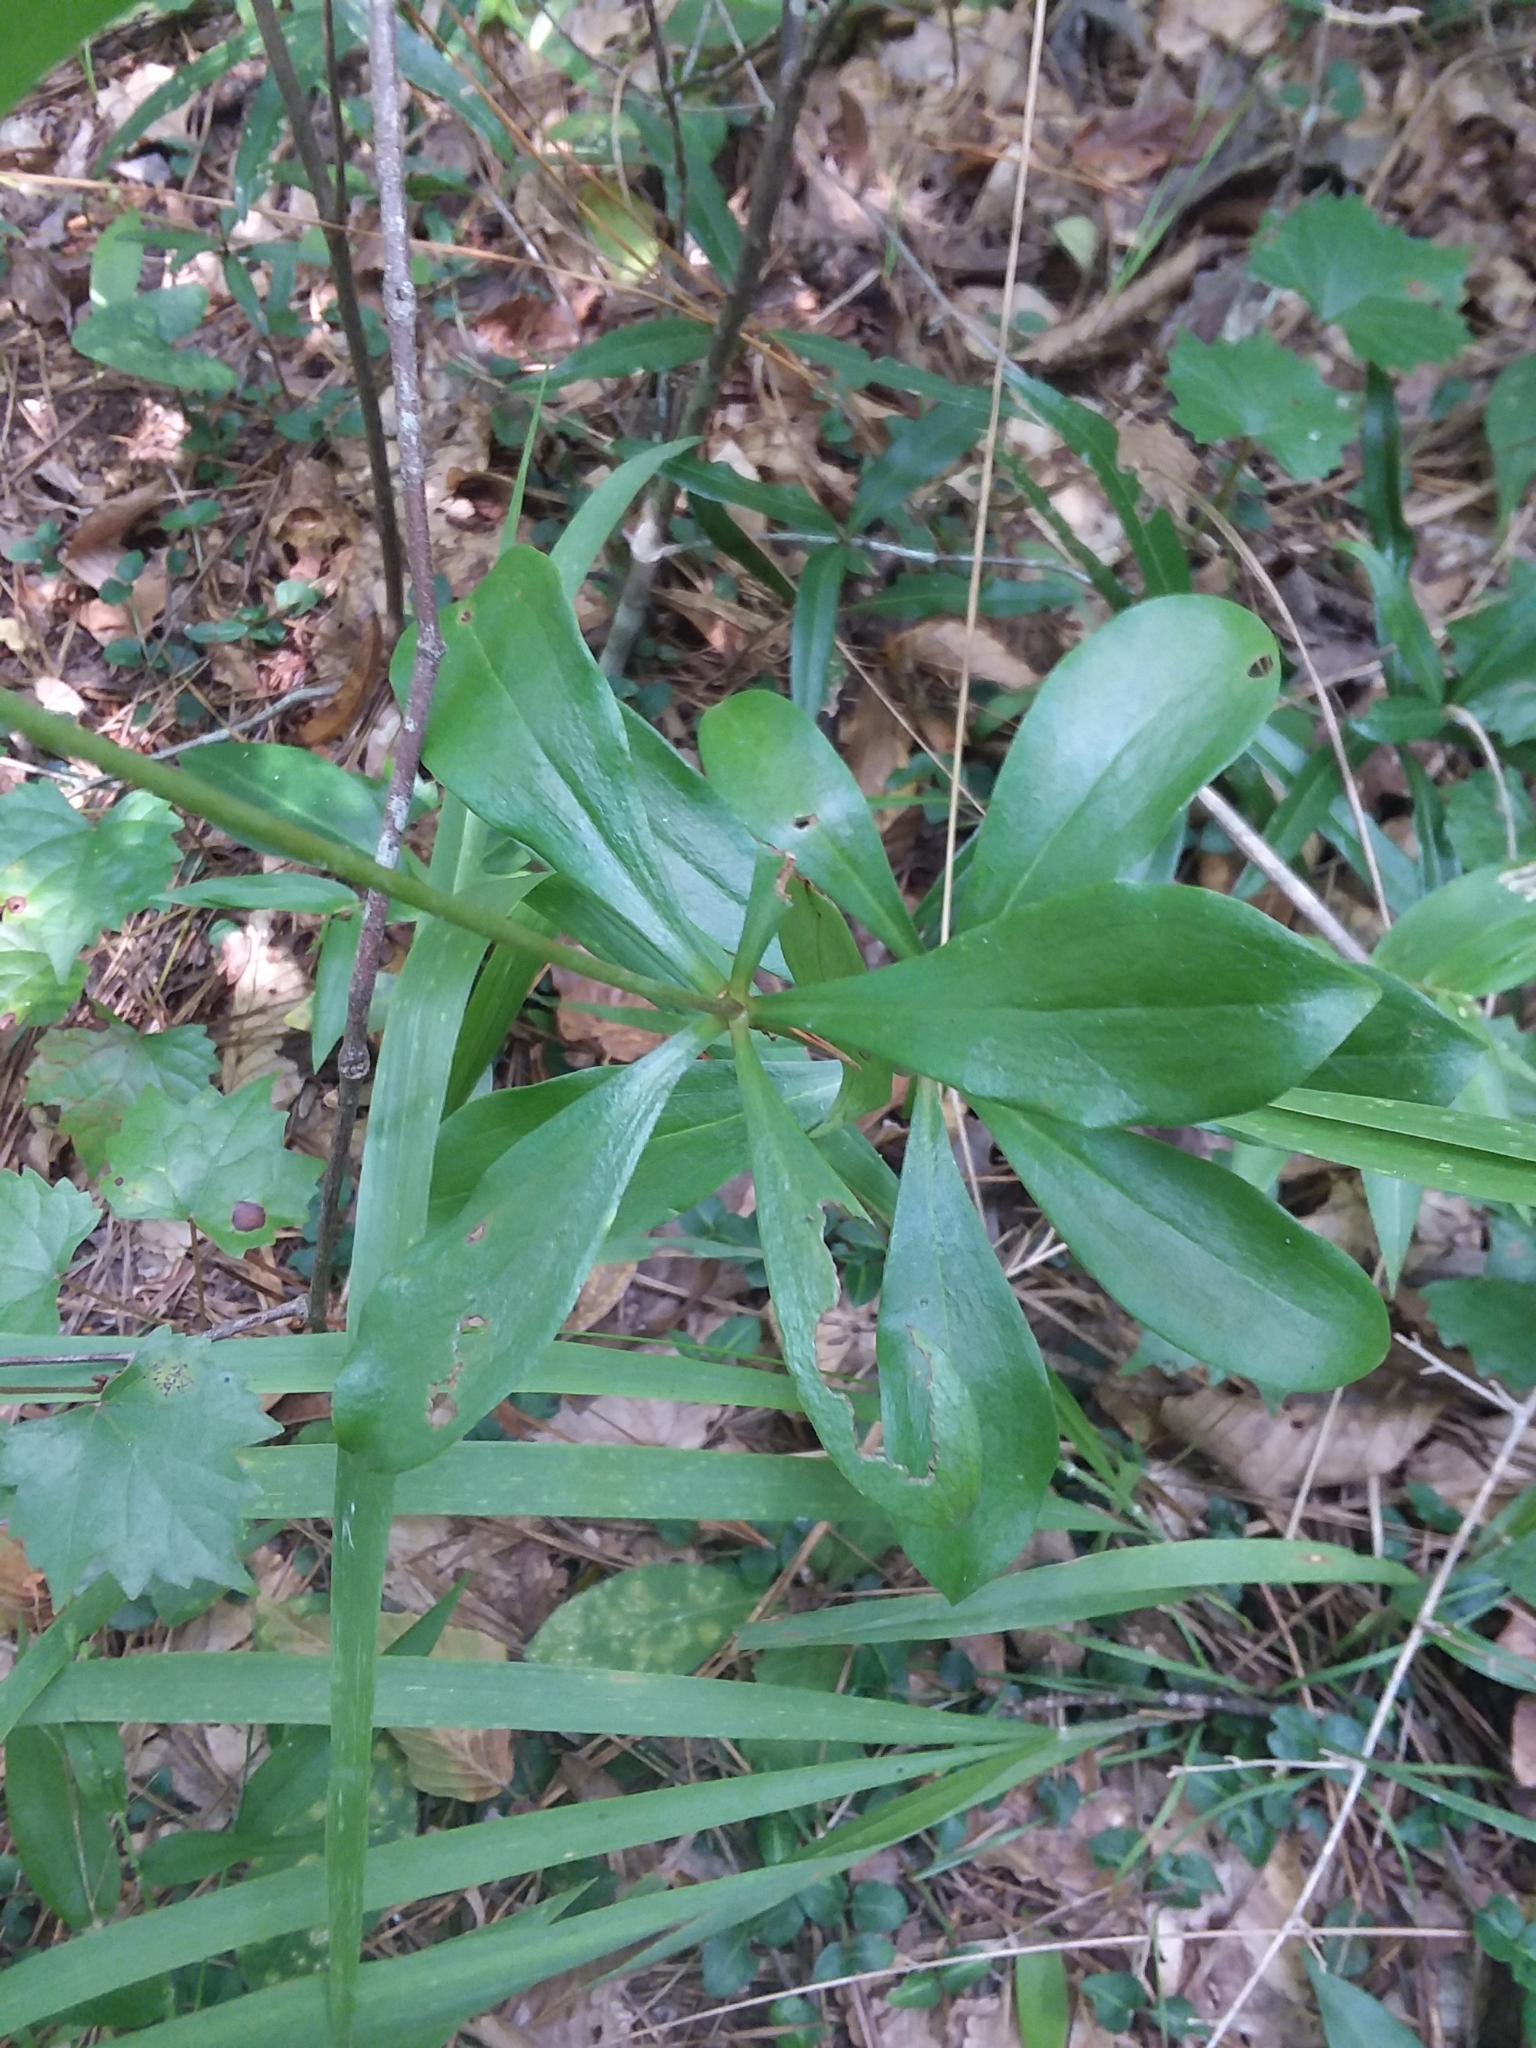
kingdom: Plantae
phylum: Tracheophyta
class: Liliopsida
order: Liliales
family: Liliaceae
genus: Lilium
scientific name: Lilium michauxii
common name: Carolina lily
